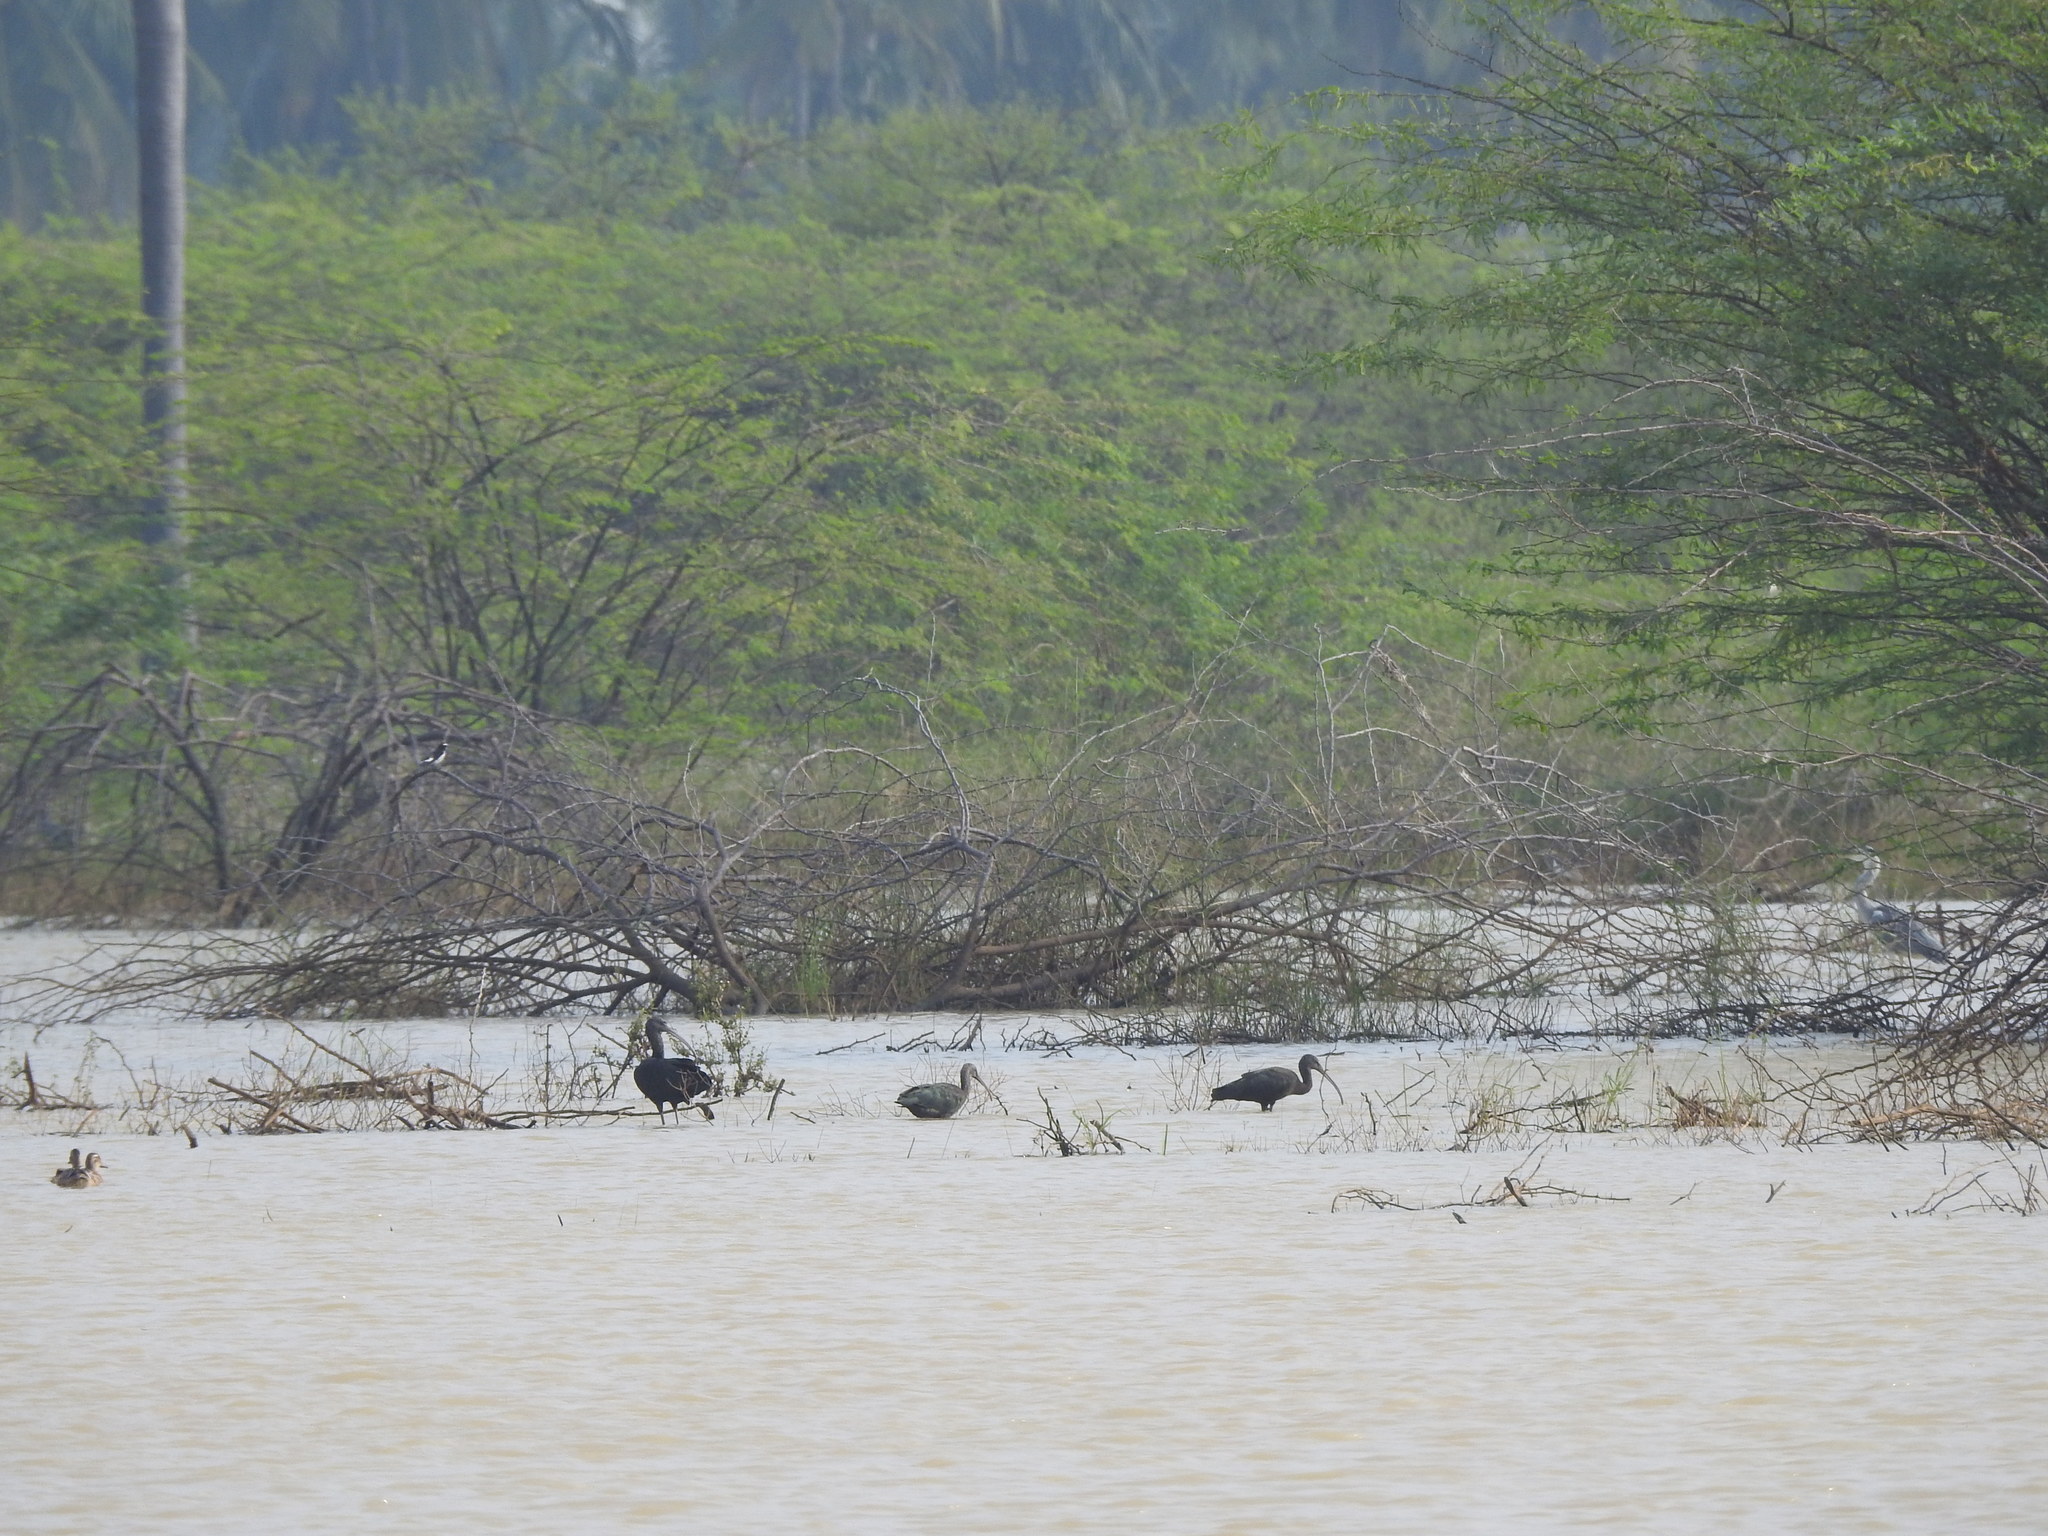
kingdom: Animalia
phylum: Chordata
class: Aves
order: Pelecaniformes
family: Threskiornithidae
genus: Plegadis
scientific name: Plegadis falcinellus
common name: Glossy ibis
